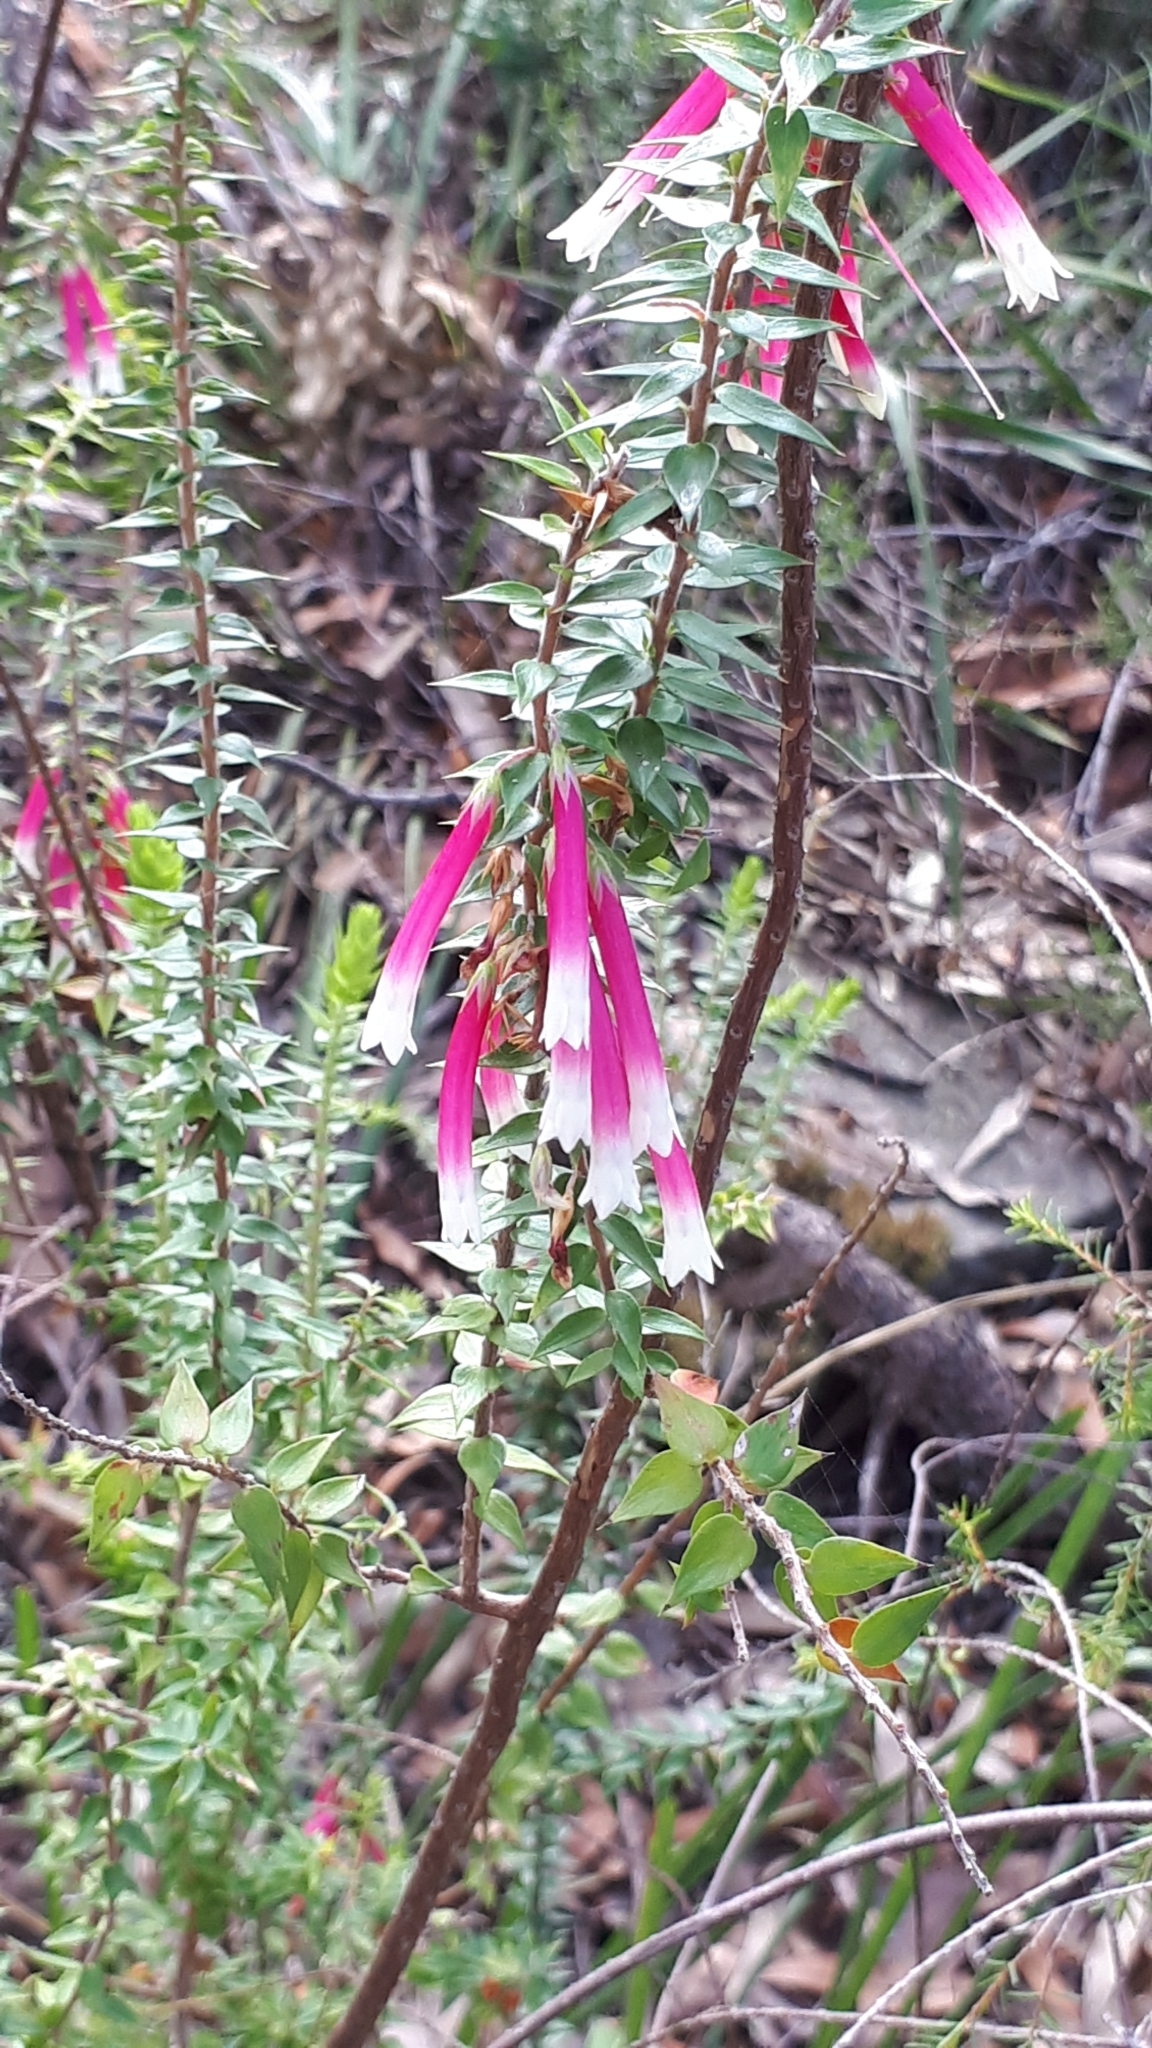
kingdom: Plantae
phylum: Tracheophyta
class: Magnoliopsida
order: Ericales
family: Ericaceae
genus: Epacris
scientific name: Epacris longiflora
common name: Fuchsia-heath
